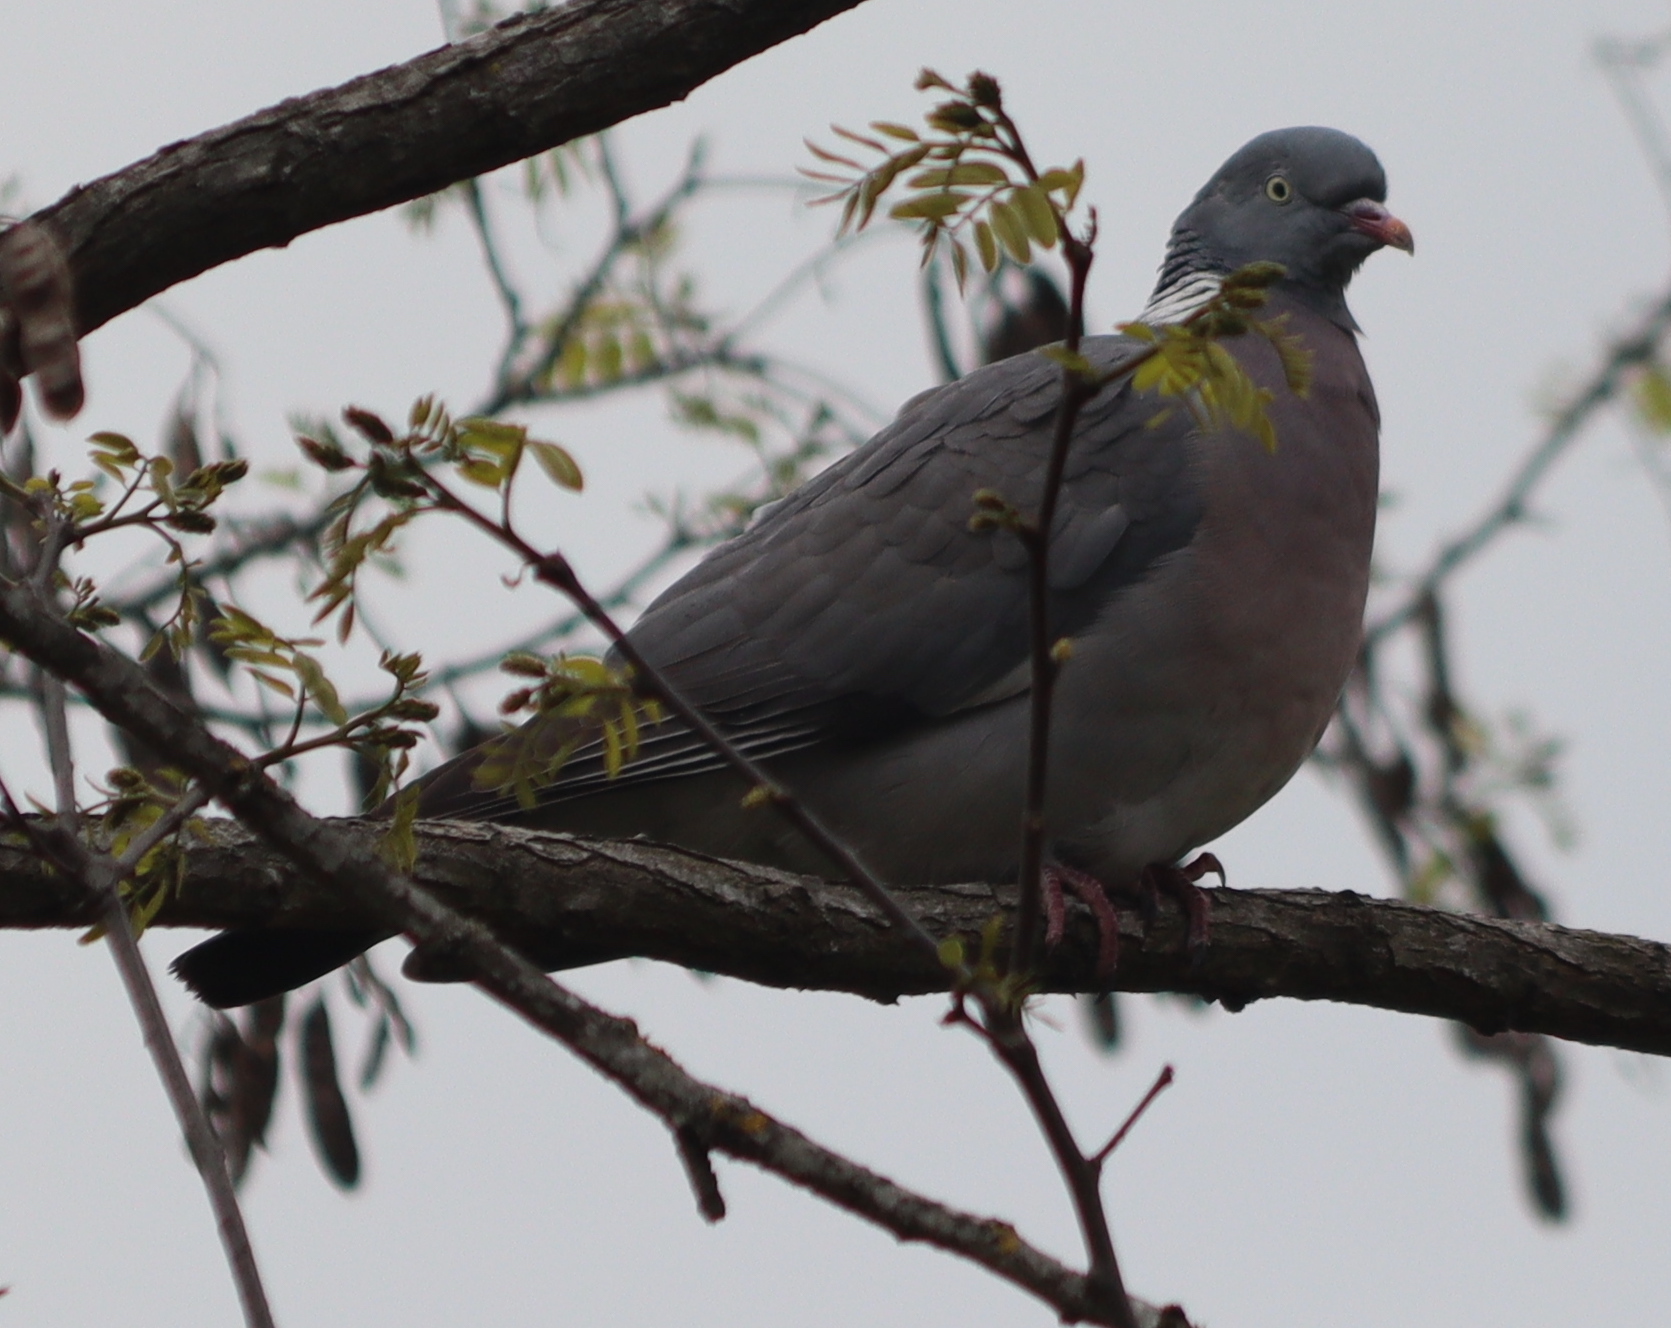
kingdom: Animalia
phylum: Chordata
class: Aves
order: Columbiformes
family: Columbidae
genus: Columba
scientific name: Columba palumbus
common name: Common wood pigeon
